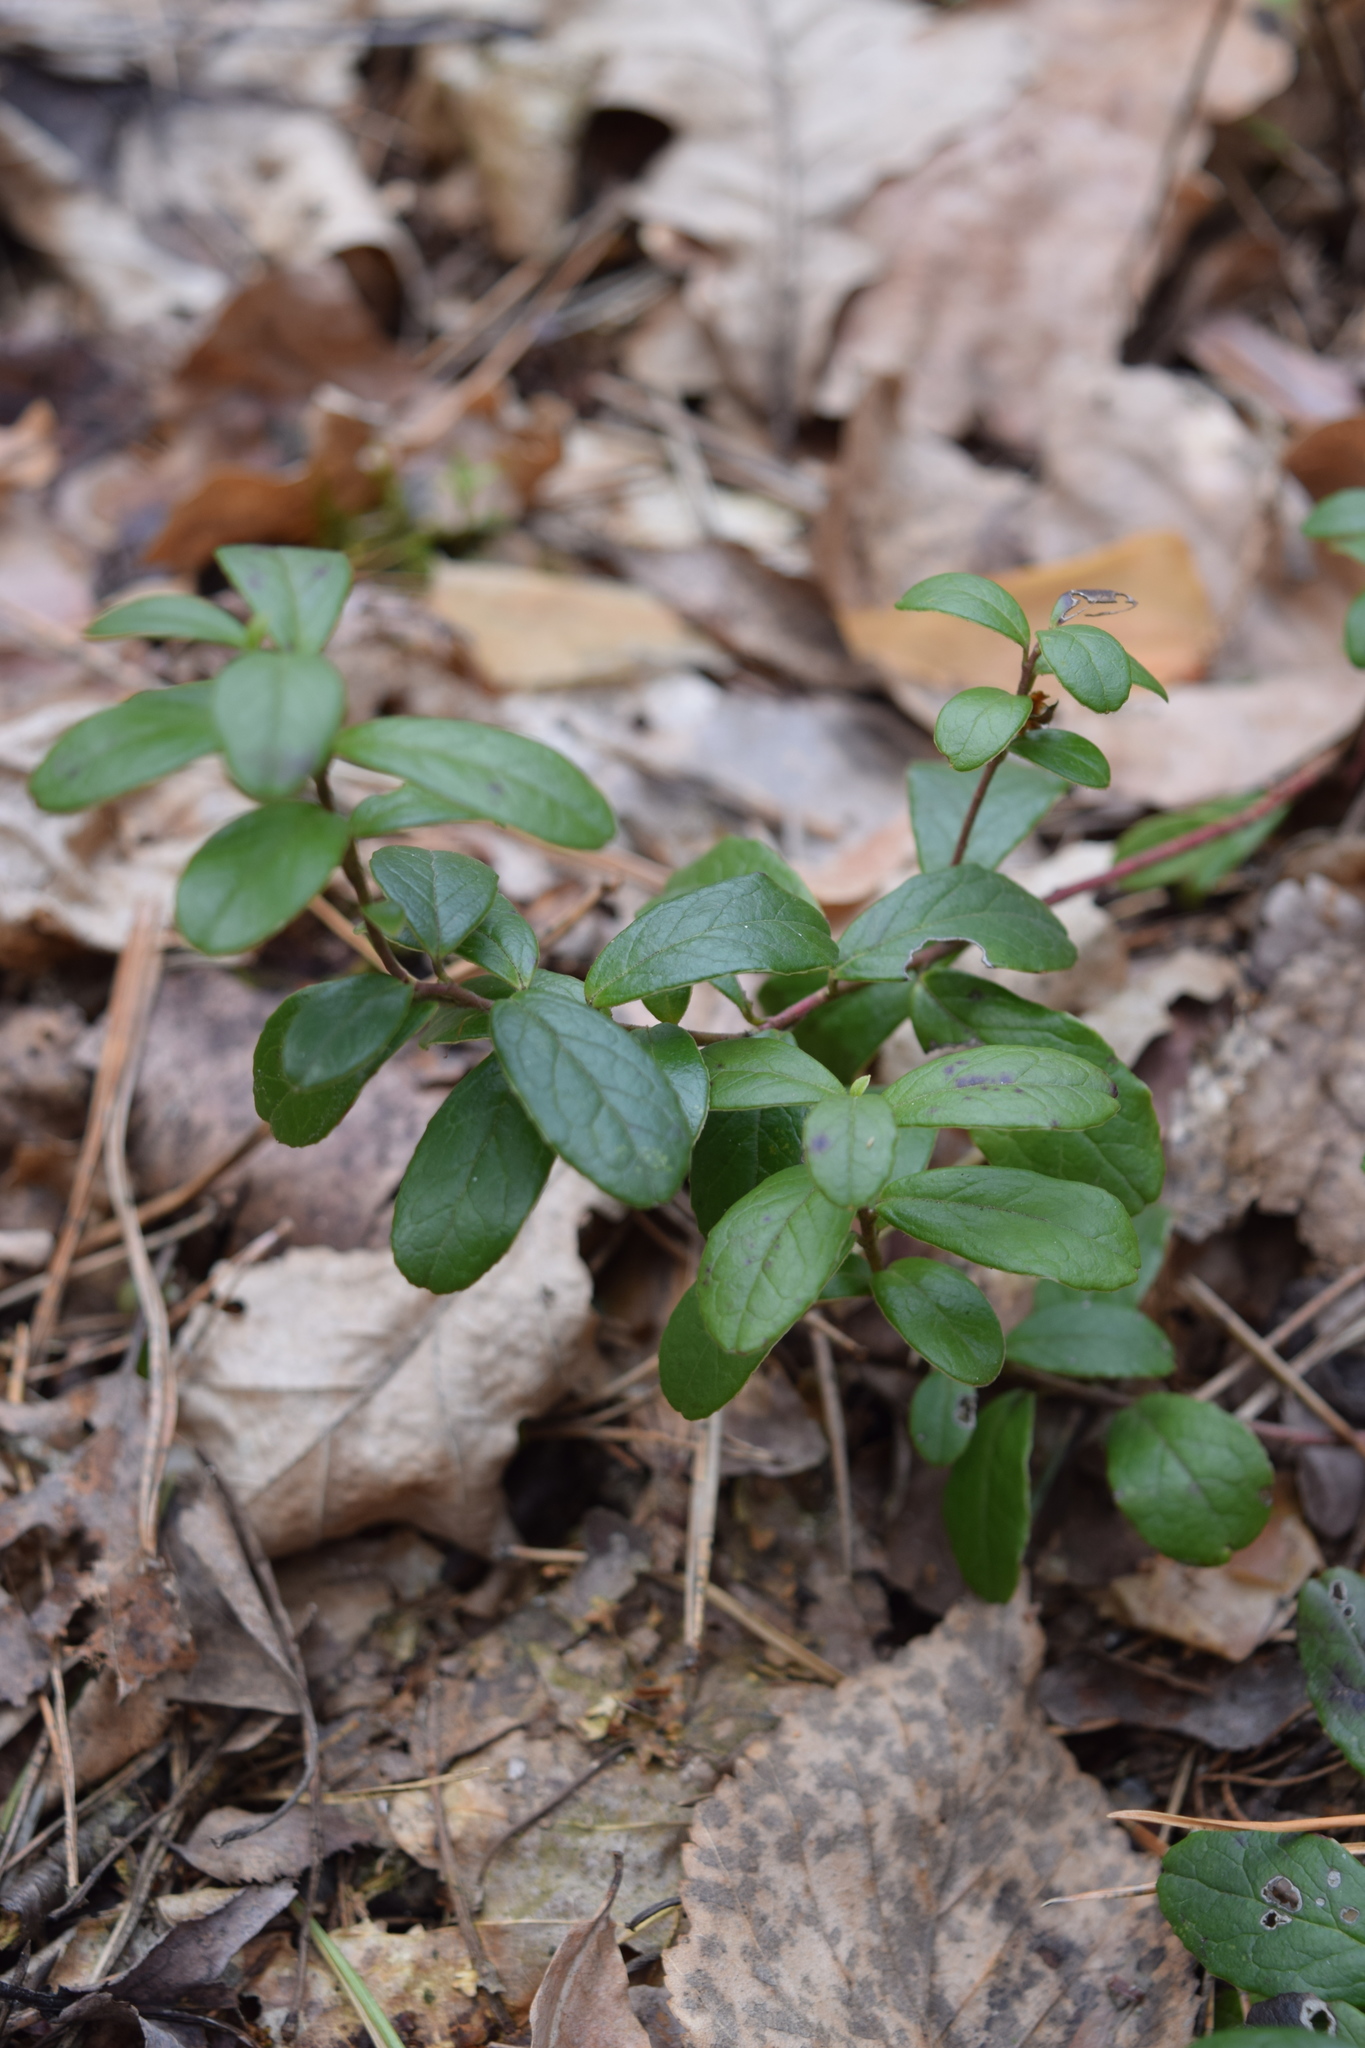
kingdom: Plantae
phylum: Tracheophyta
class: Magnoliopsida
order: Ericales
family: Ericaceae
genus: Vaccinium
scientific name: Vaccinium vitis-idaea
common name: Cowberry
